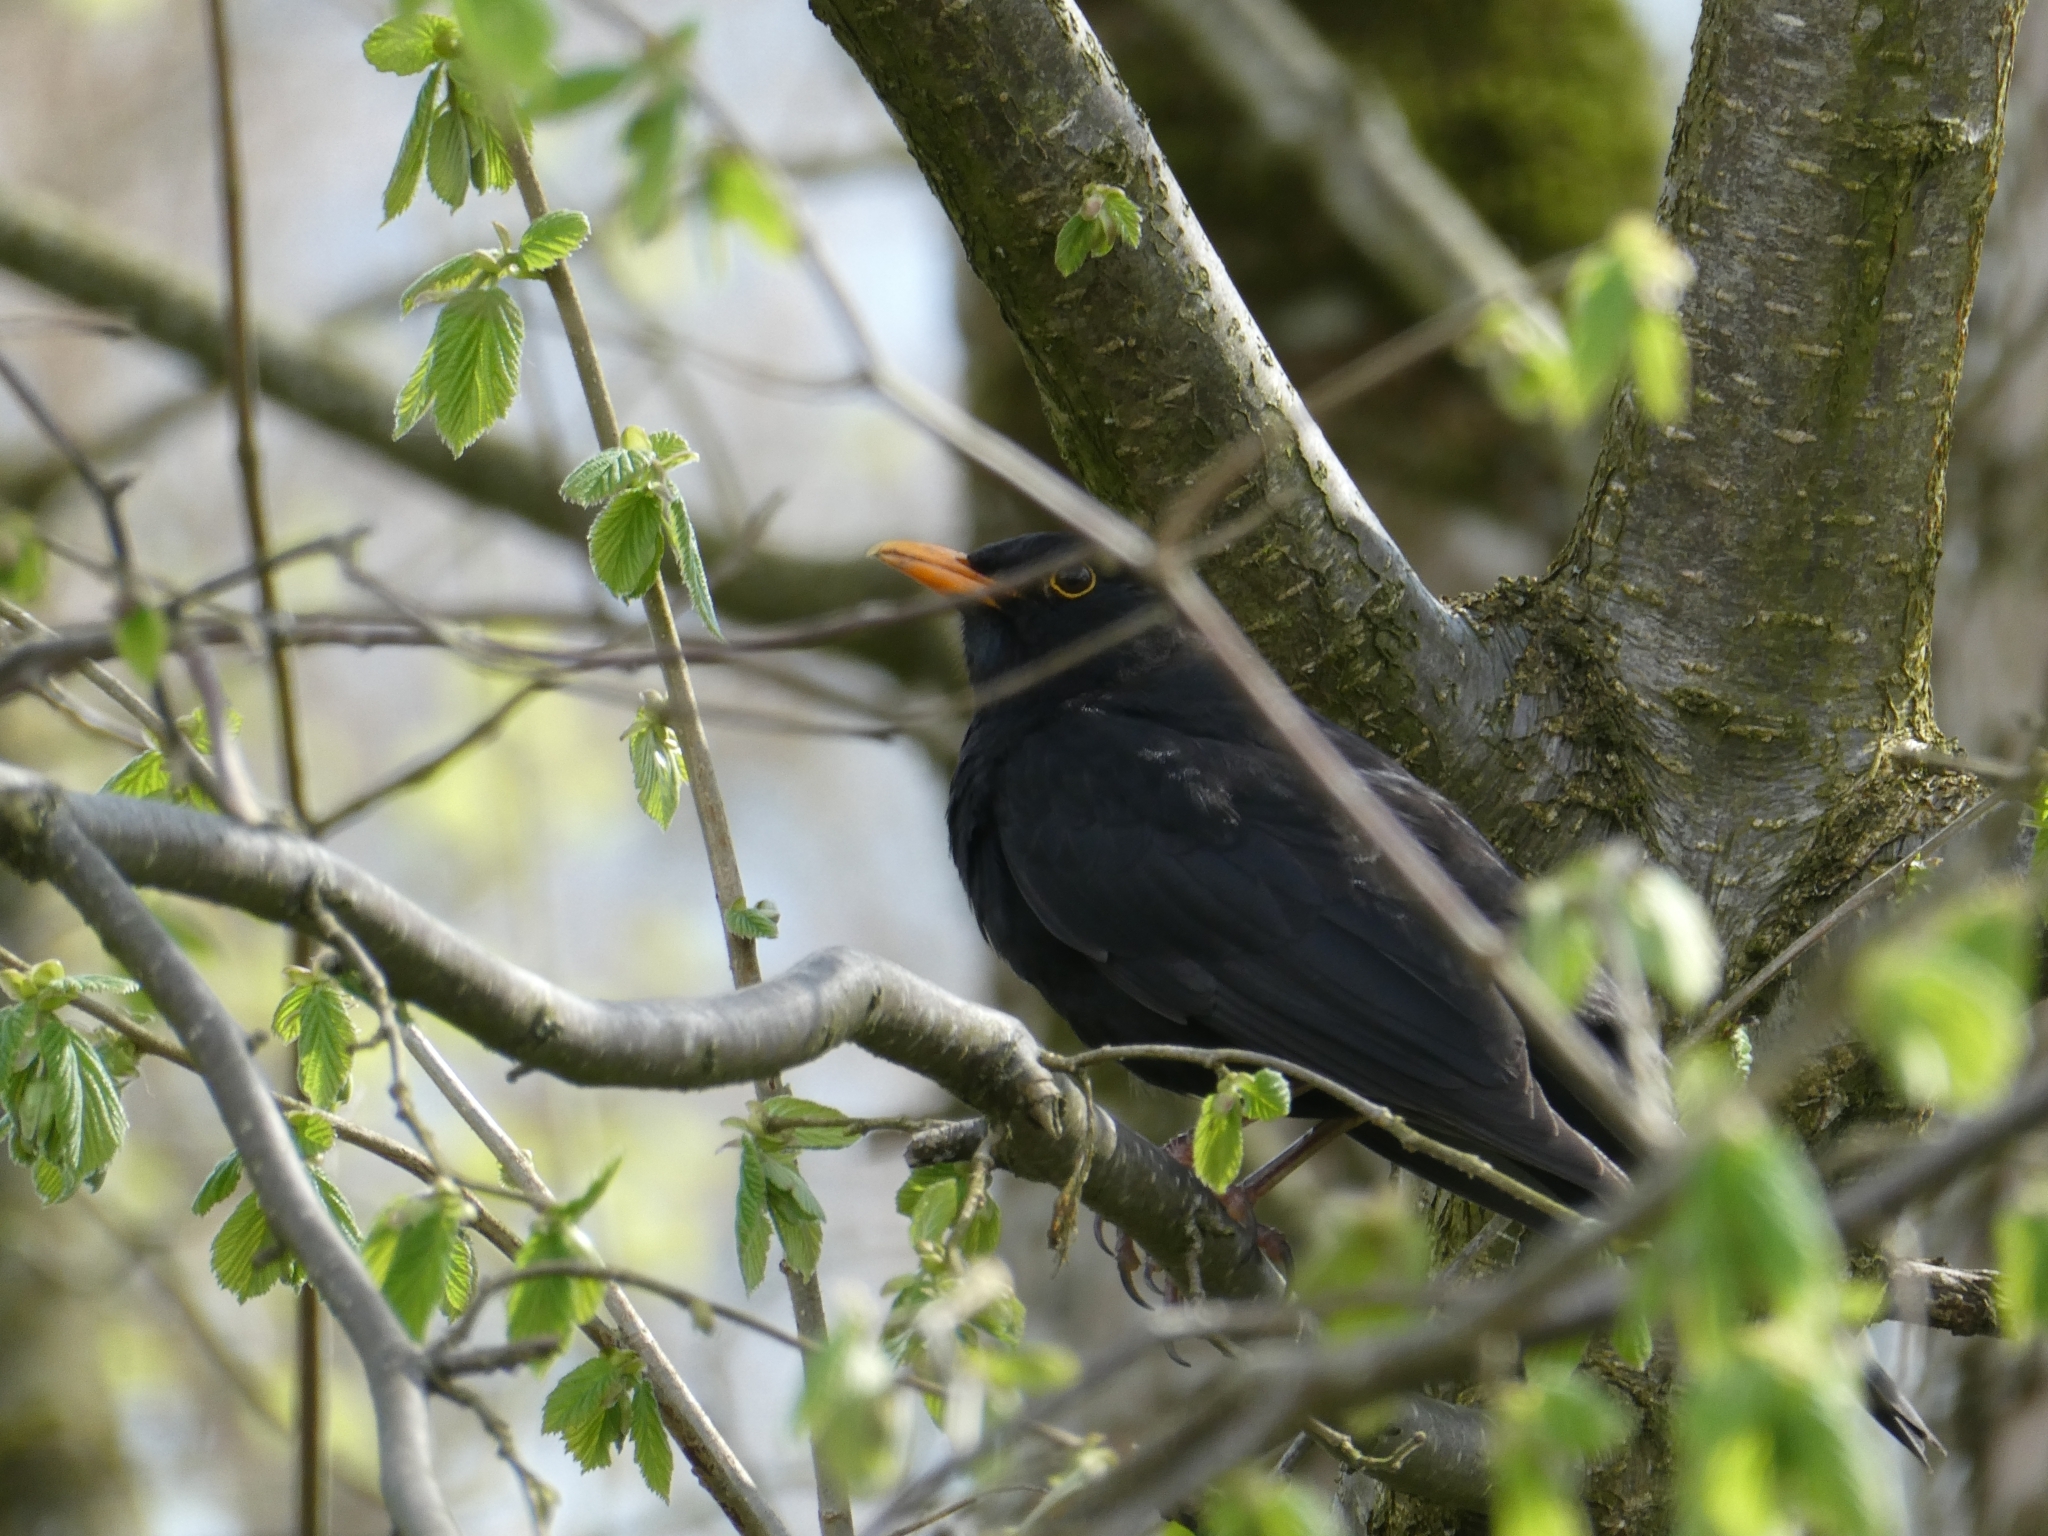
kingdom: Animalia
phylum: Chordata
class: Aves
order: Passeriformes
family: Turdidae
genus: Turdus
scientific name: Turdus merula
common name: Common blackbird
